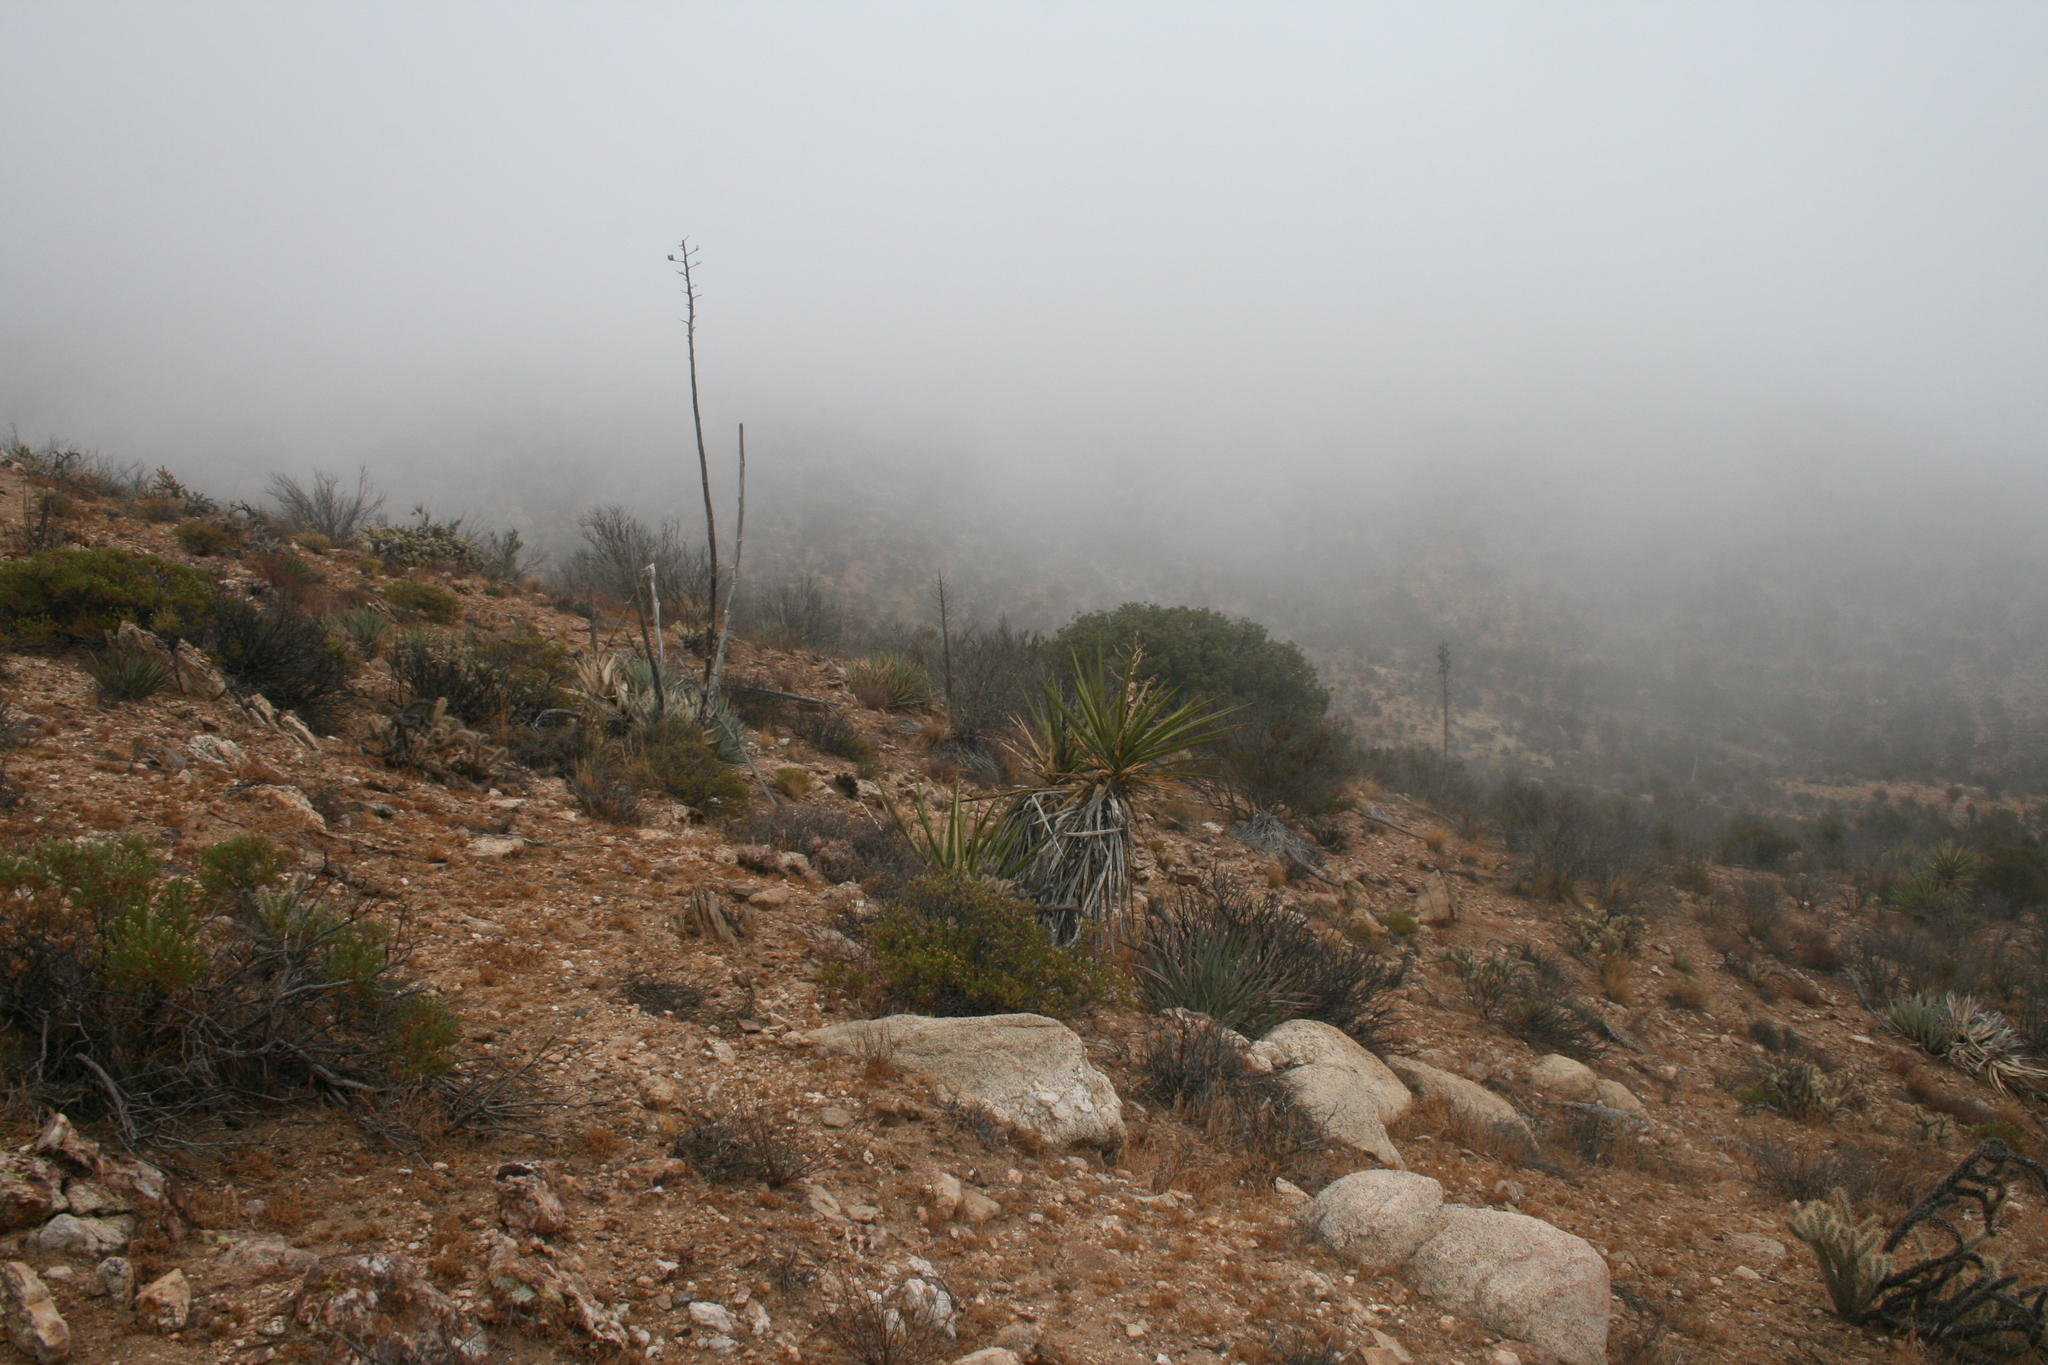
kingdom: Plantae
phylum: Tracheophyta
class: Liliopsida
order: Asparagales
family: Asparagaceae
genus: Yucca
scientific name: Yucca schidigera
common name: Mojave yucca
